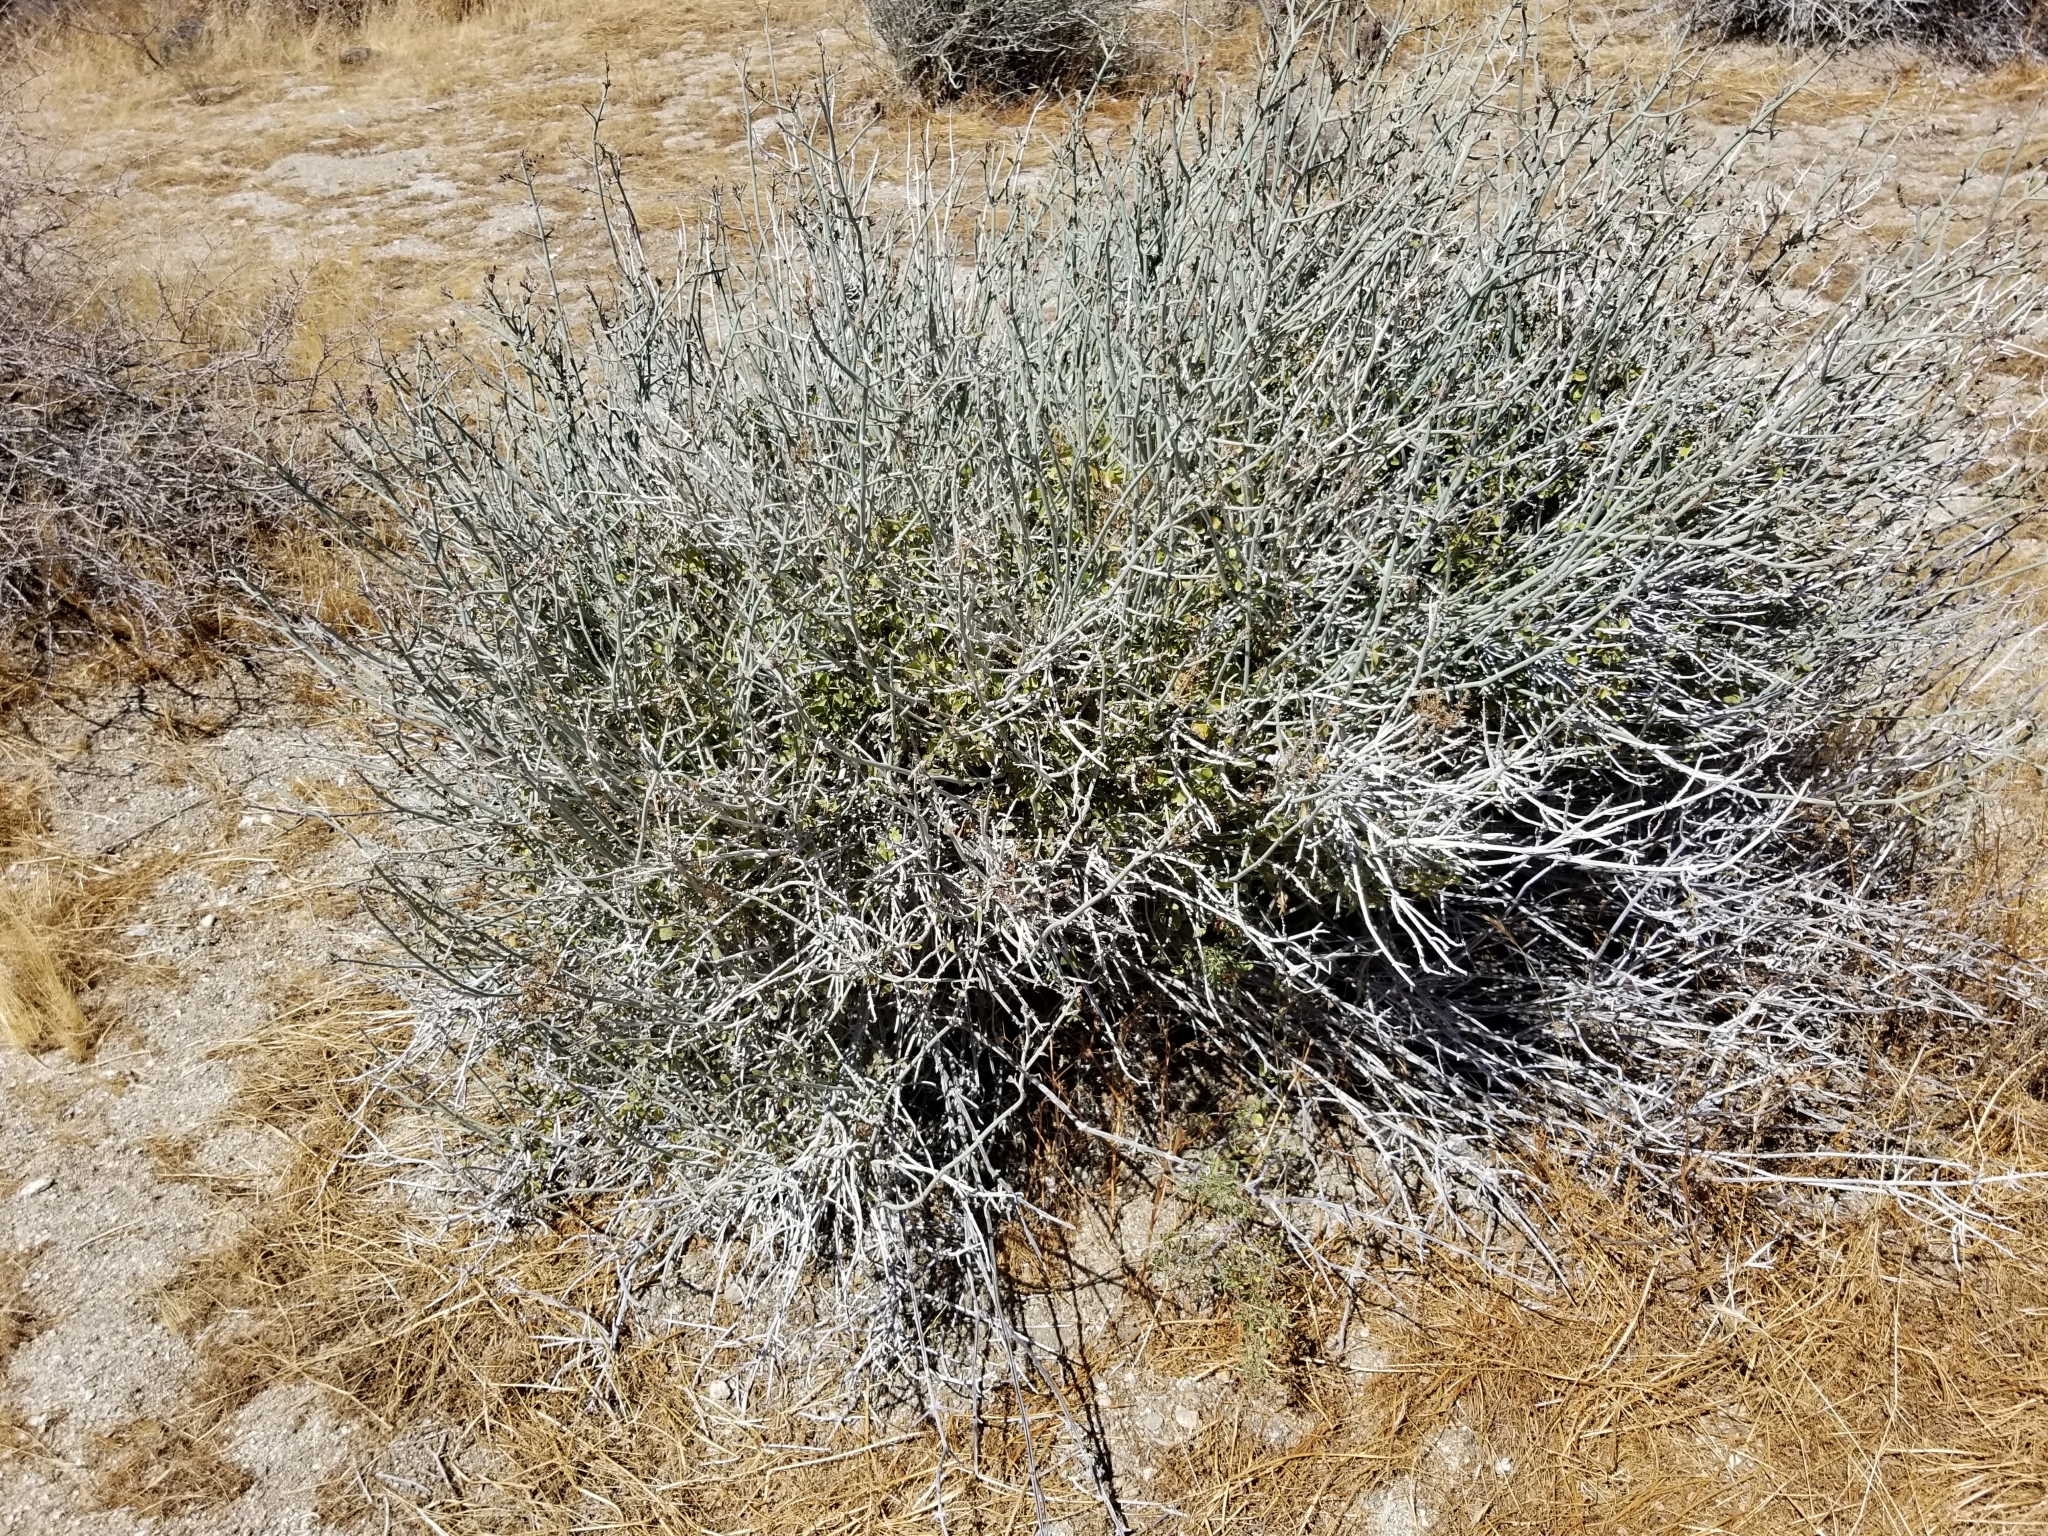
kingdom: Plantae
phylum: Tracheophyta
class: Magnoliopsida
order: Lamiales
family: Acanthaceae
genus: Justicia
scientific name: Justicia californica
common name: Chuparosa-honeysuckle
